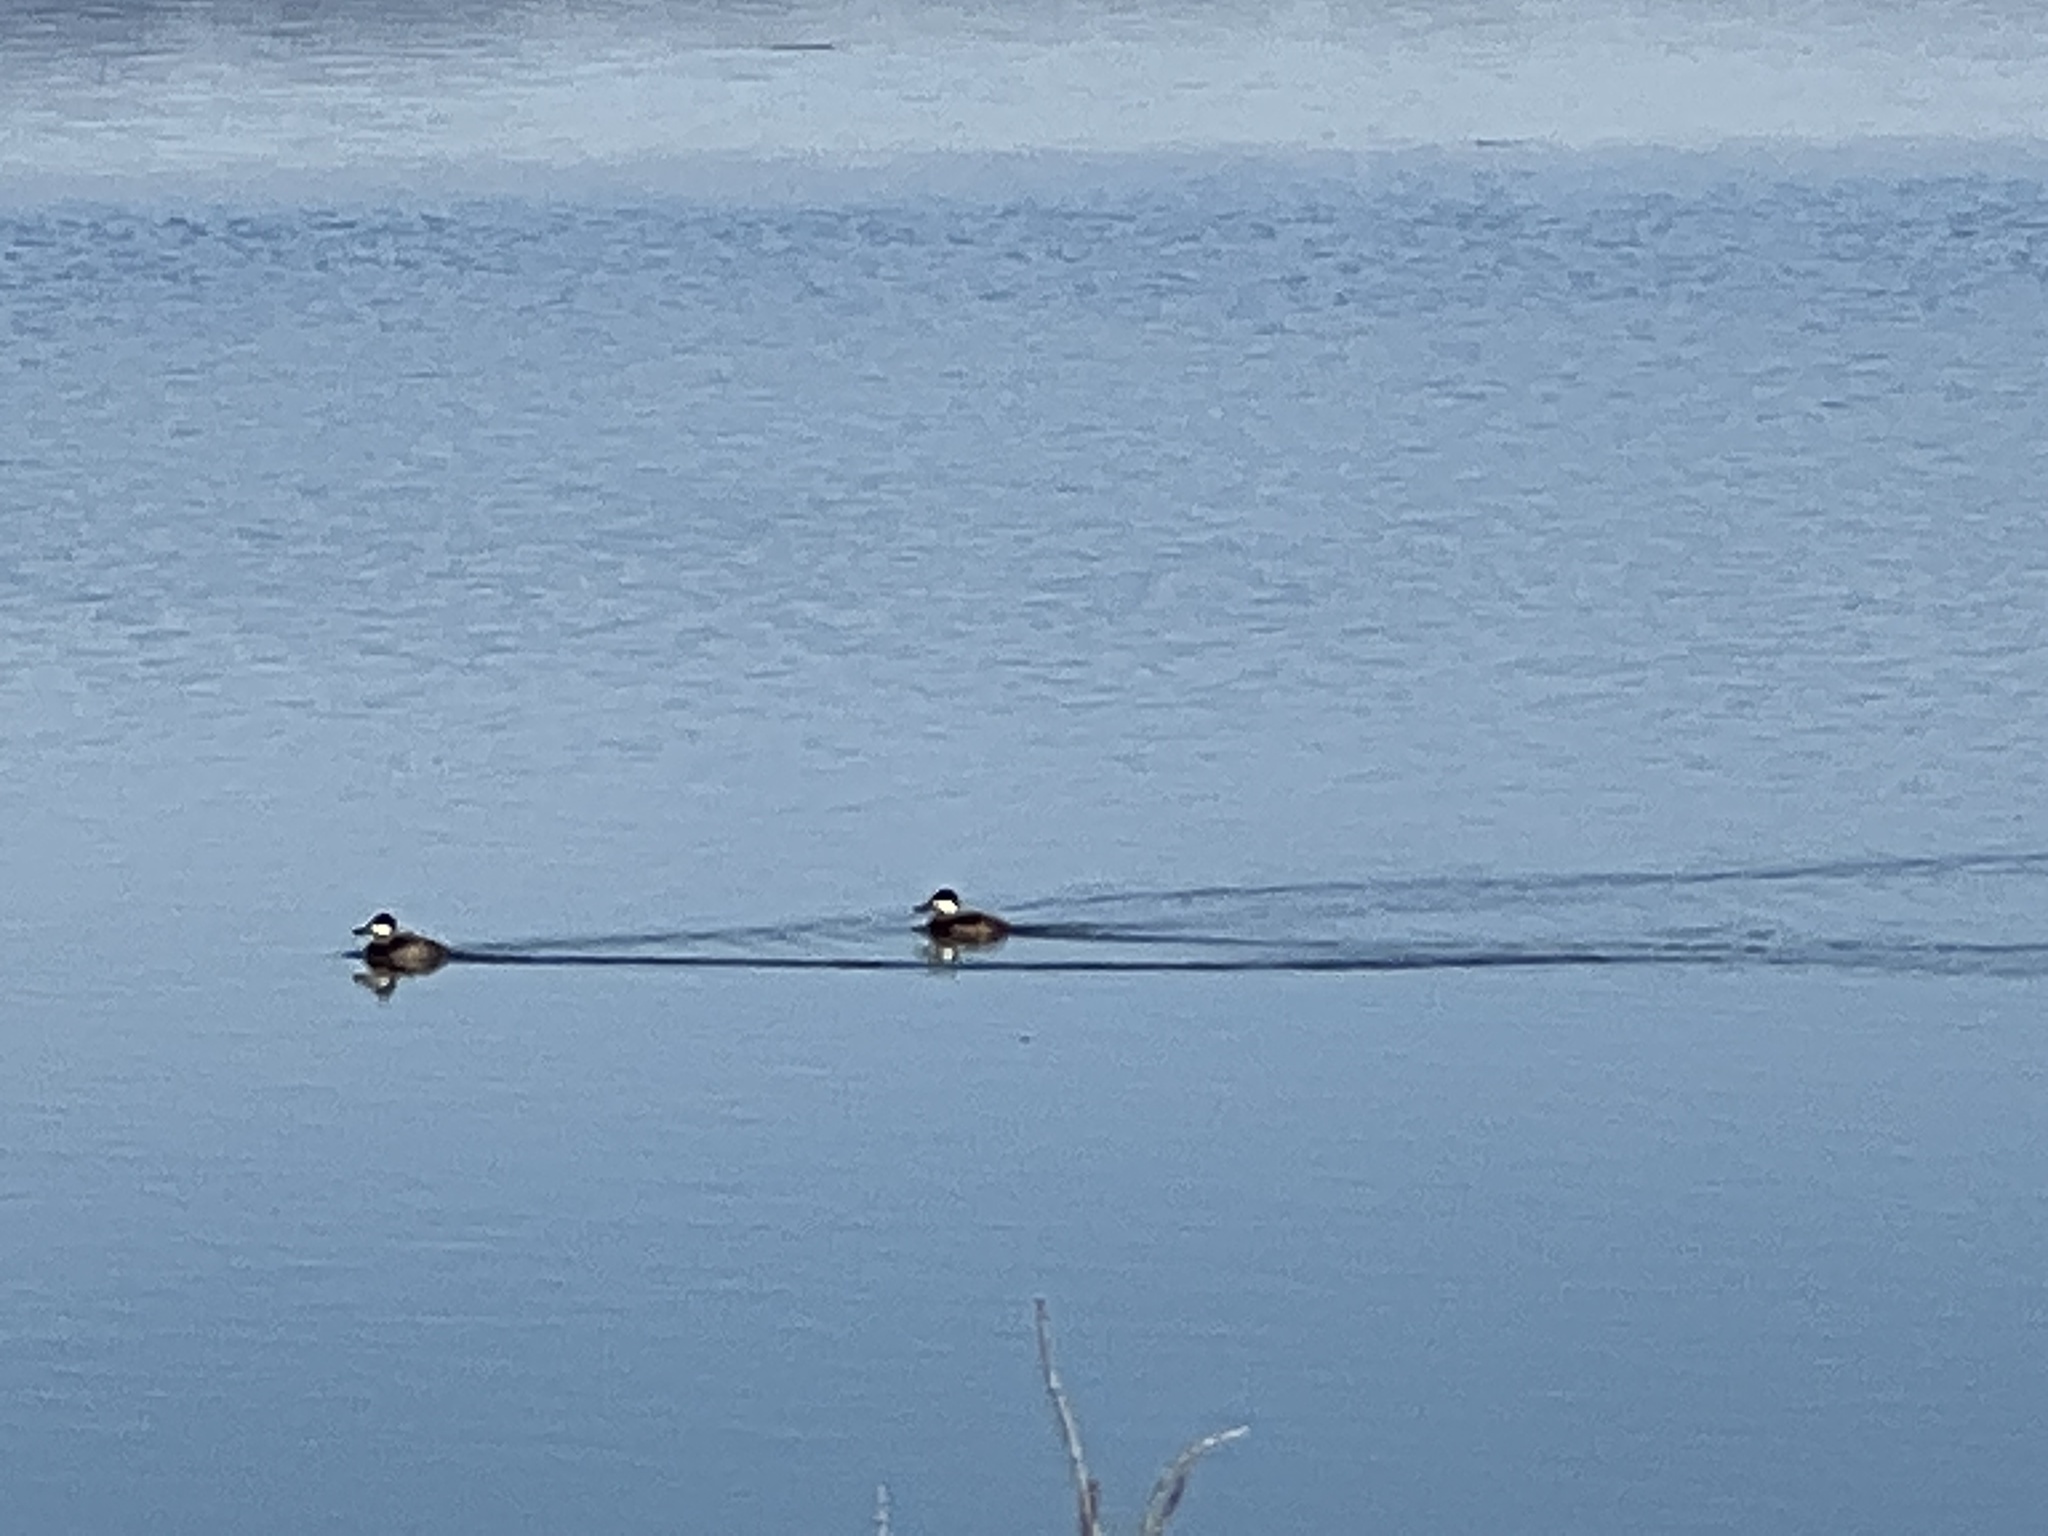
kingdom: Animalia
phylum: Chordata
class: Aves
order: Anseriformes
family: Anatidae
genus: Oxyura
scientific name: Oxyura jamaicensis
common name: Ruddy duck
